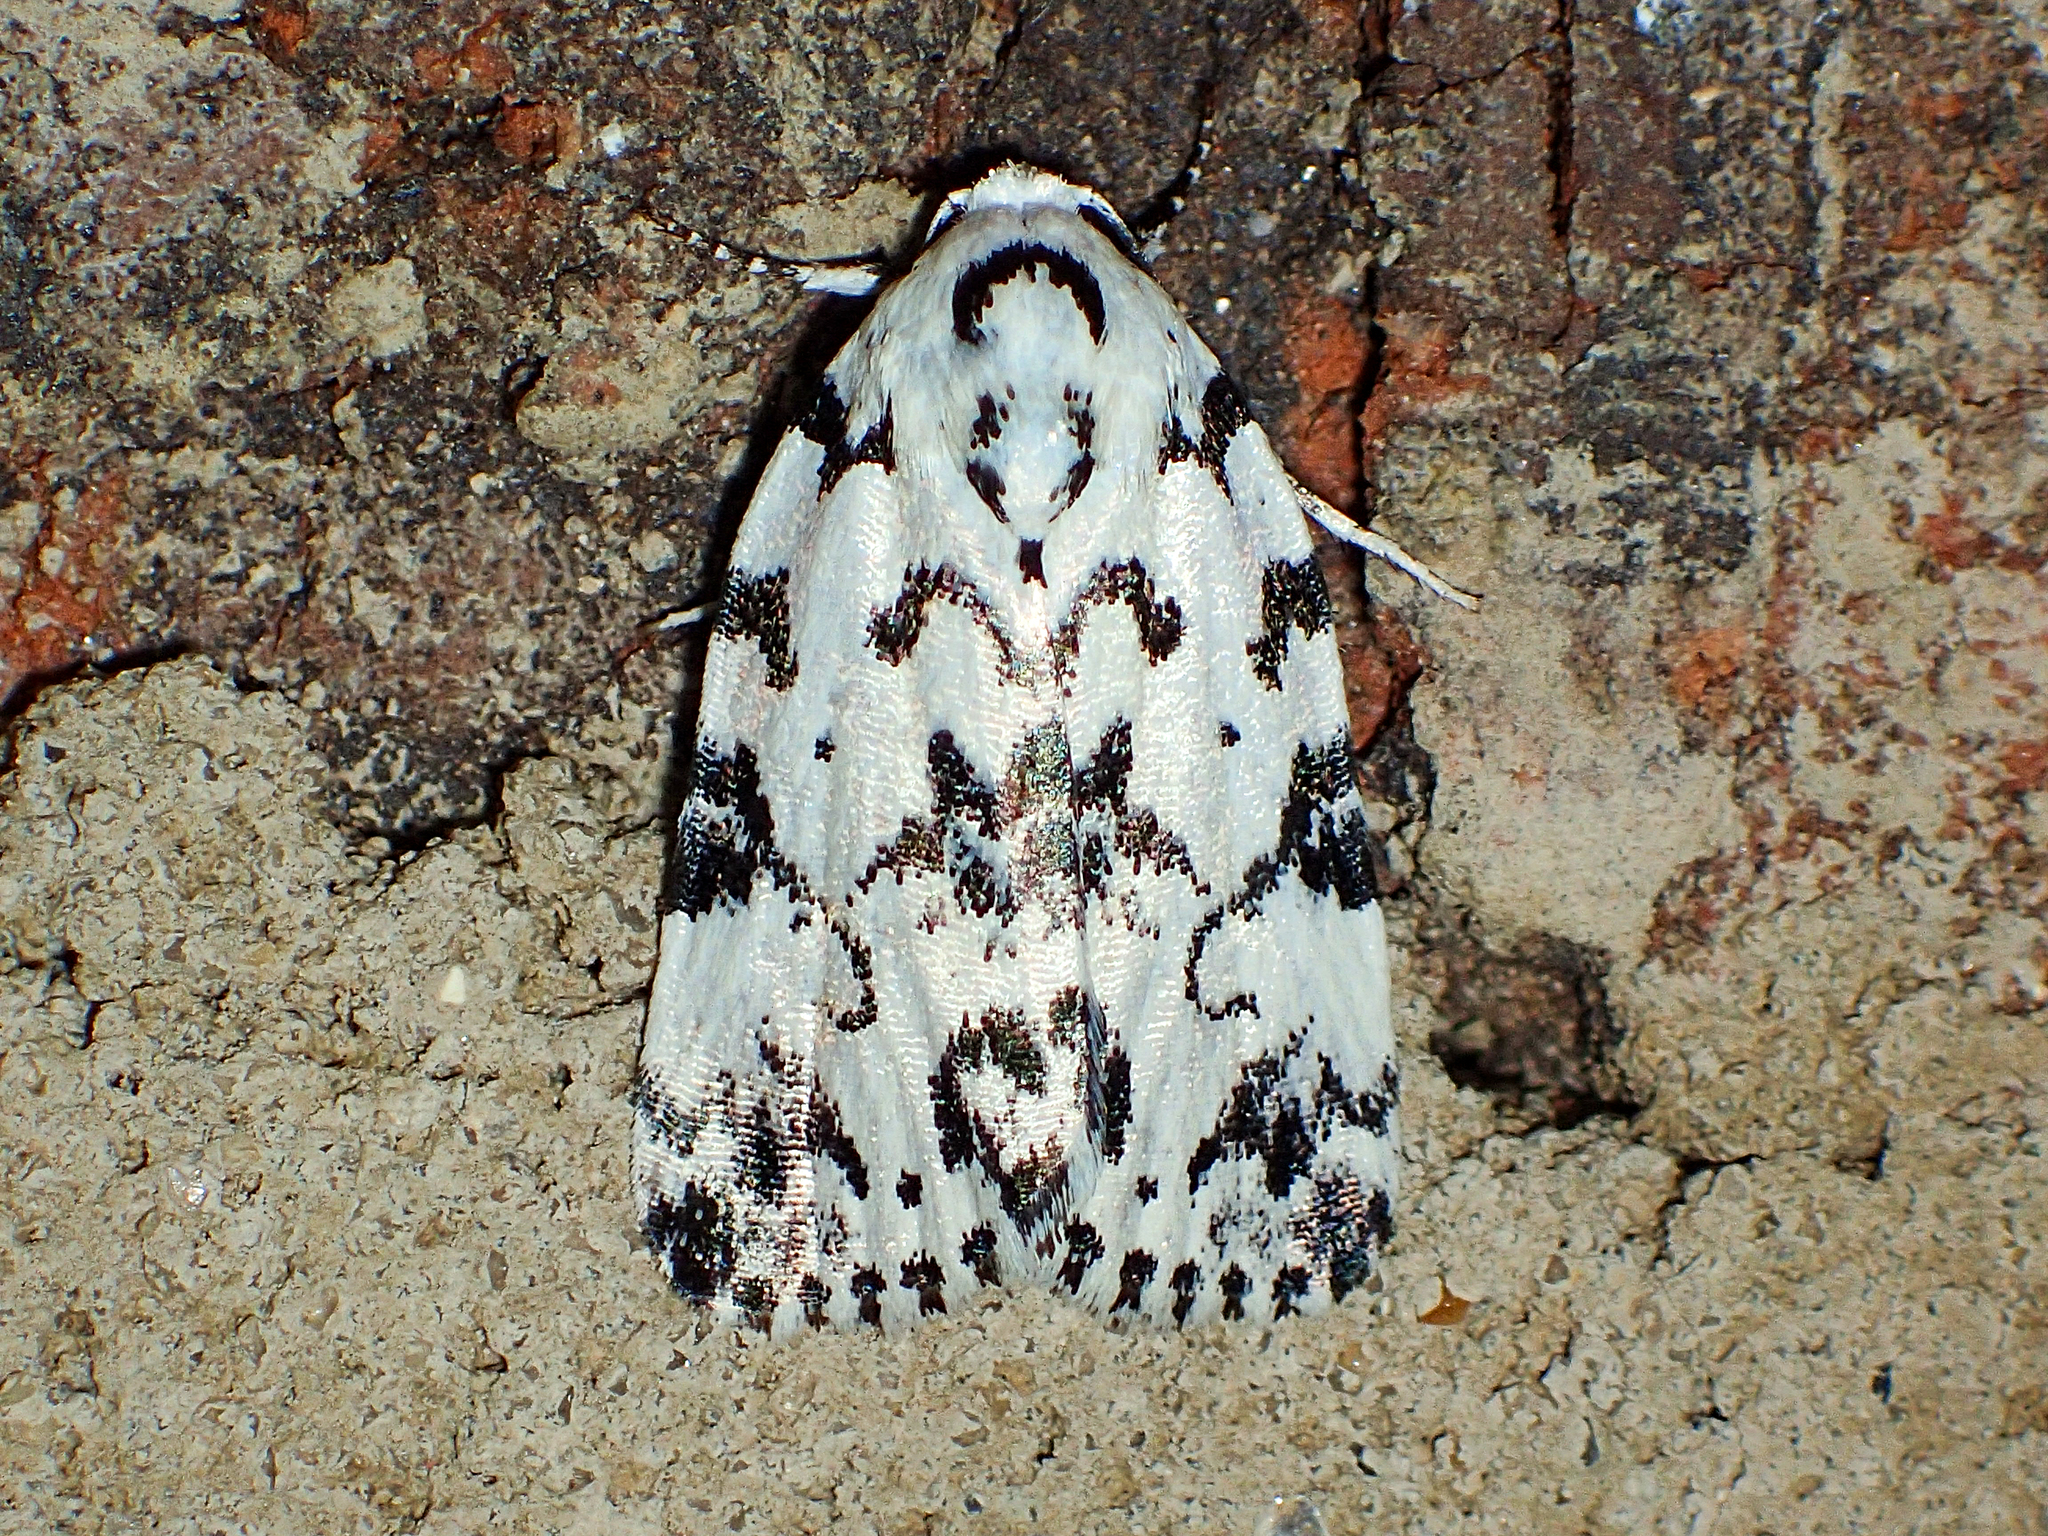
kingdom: Animalia
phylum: Arthropoda
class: Insecta
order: Lepidoptera
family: Noctuidae
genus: Polygrammate
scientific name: Polygrammate hebraeicum
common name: Hebrew moth
